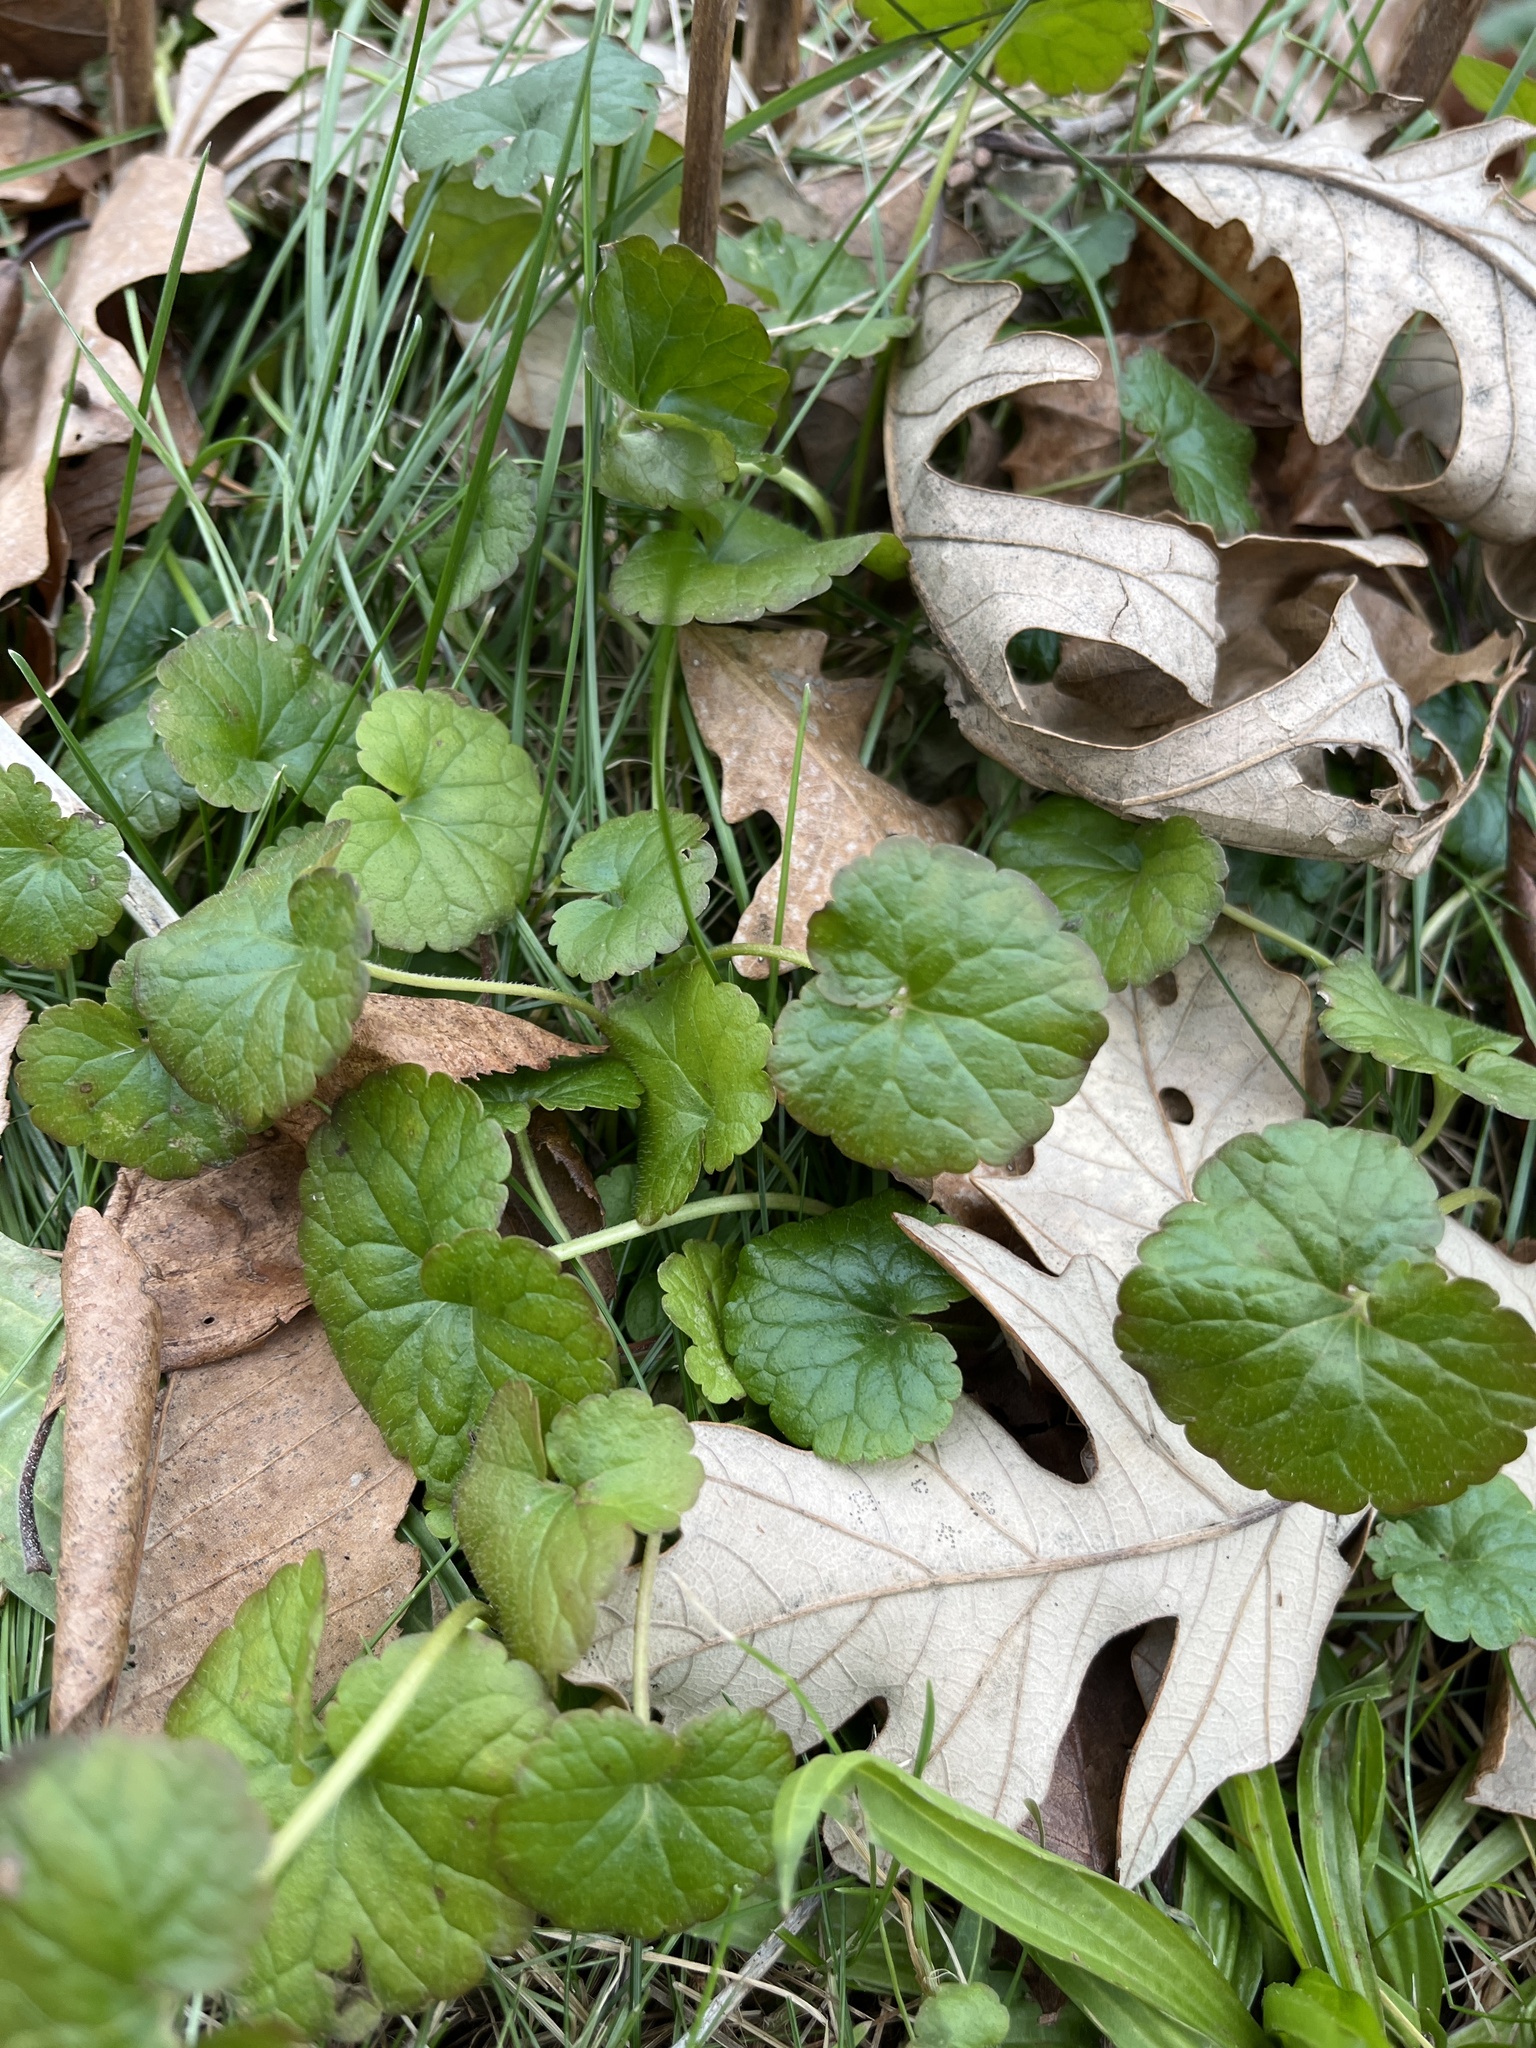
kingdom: Plantae
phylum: Tracheophyta
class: Magnoliopsida
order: Lamiales
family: Lamiaceae
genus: Glechoma
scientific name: Glechoma hederacea
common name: Ground ivy
